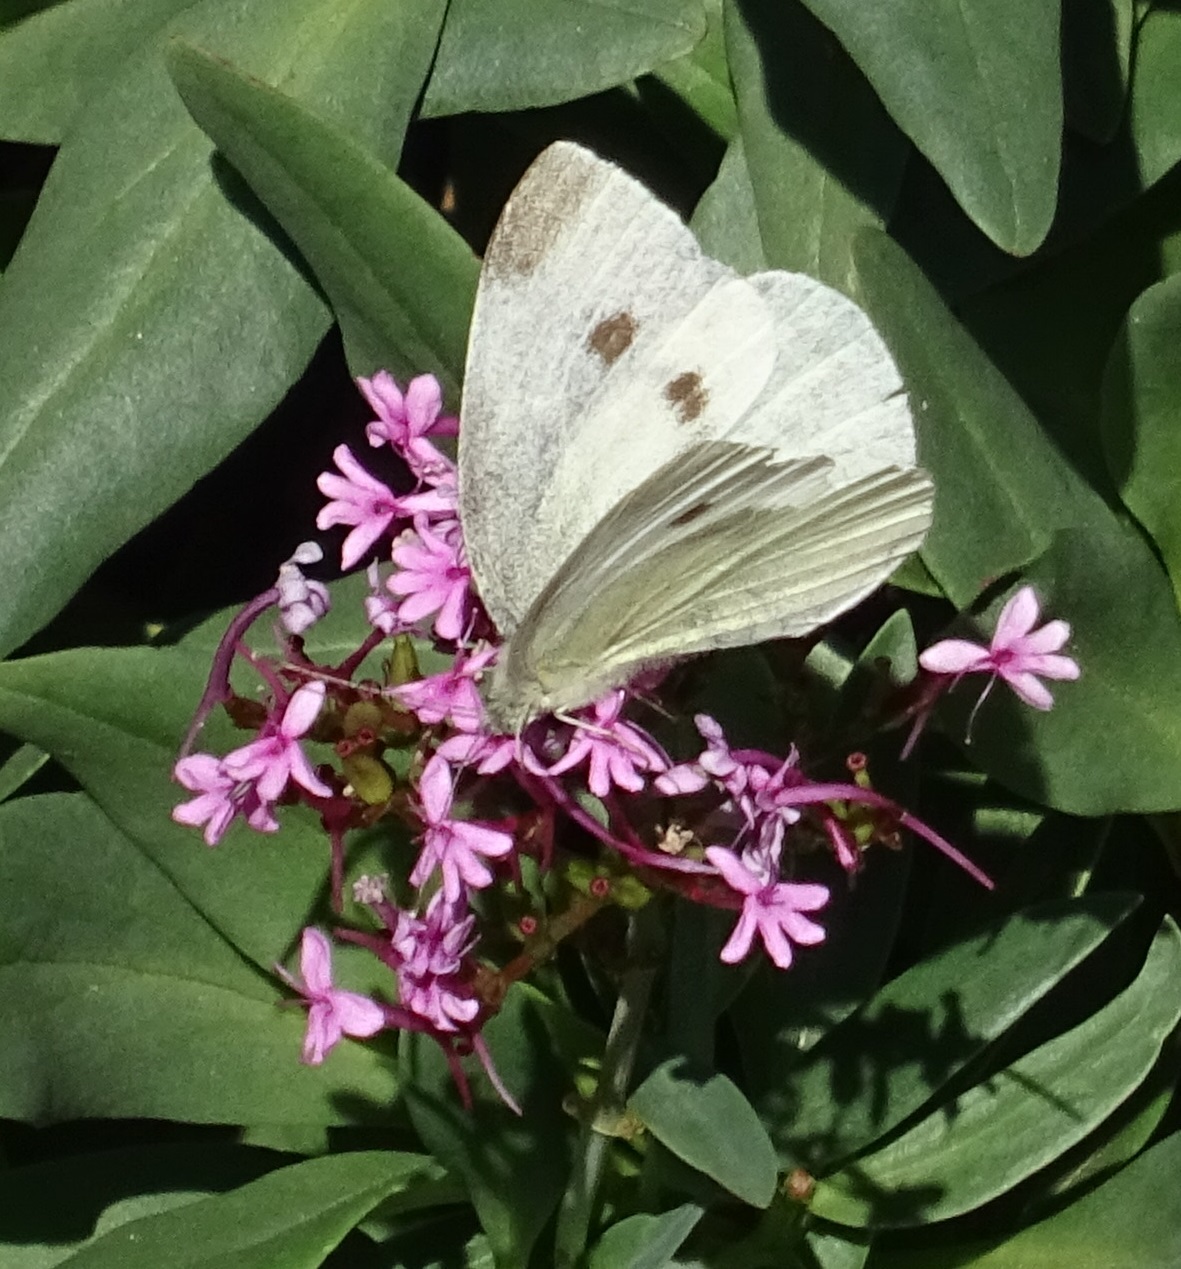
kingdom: Animalia
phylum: Arthropoda
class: Insecta
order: Lepidoptera
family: Pieridae
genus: Pieris
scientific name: Pieris rapae
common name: Small white
